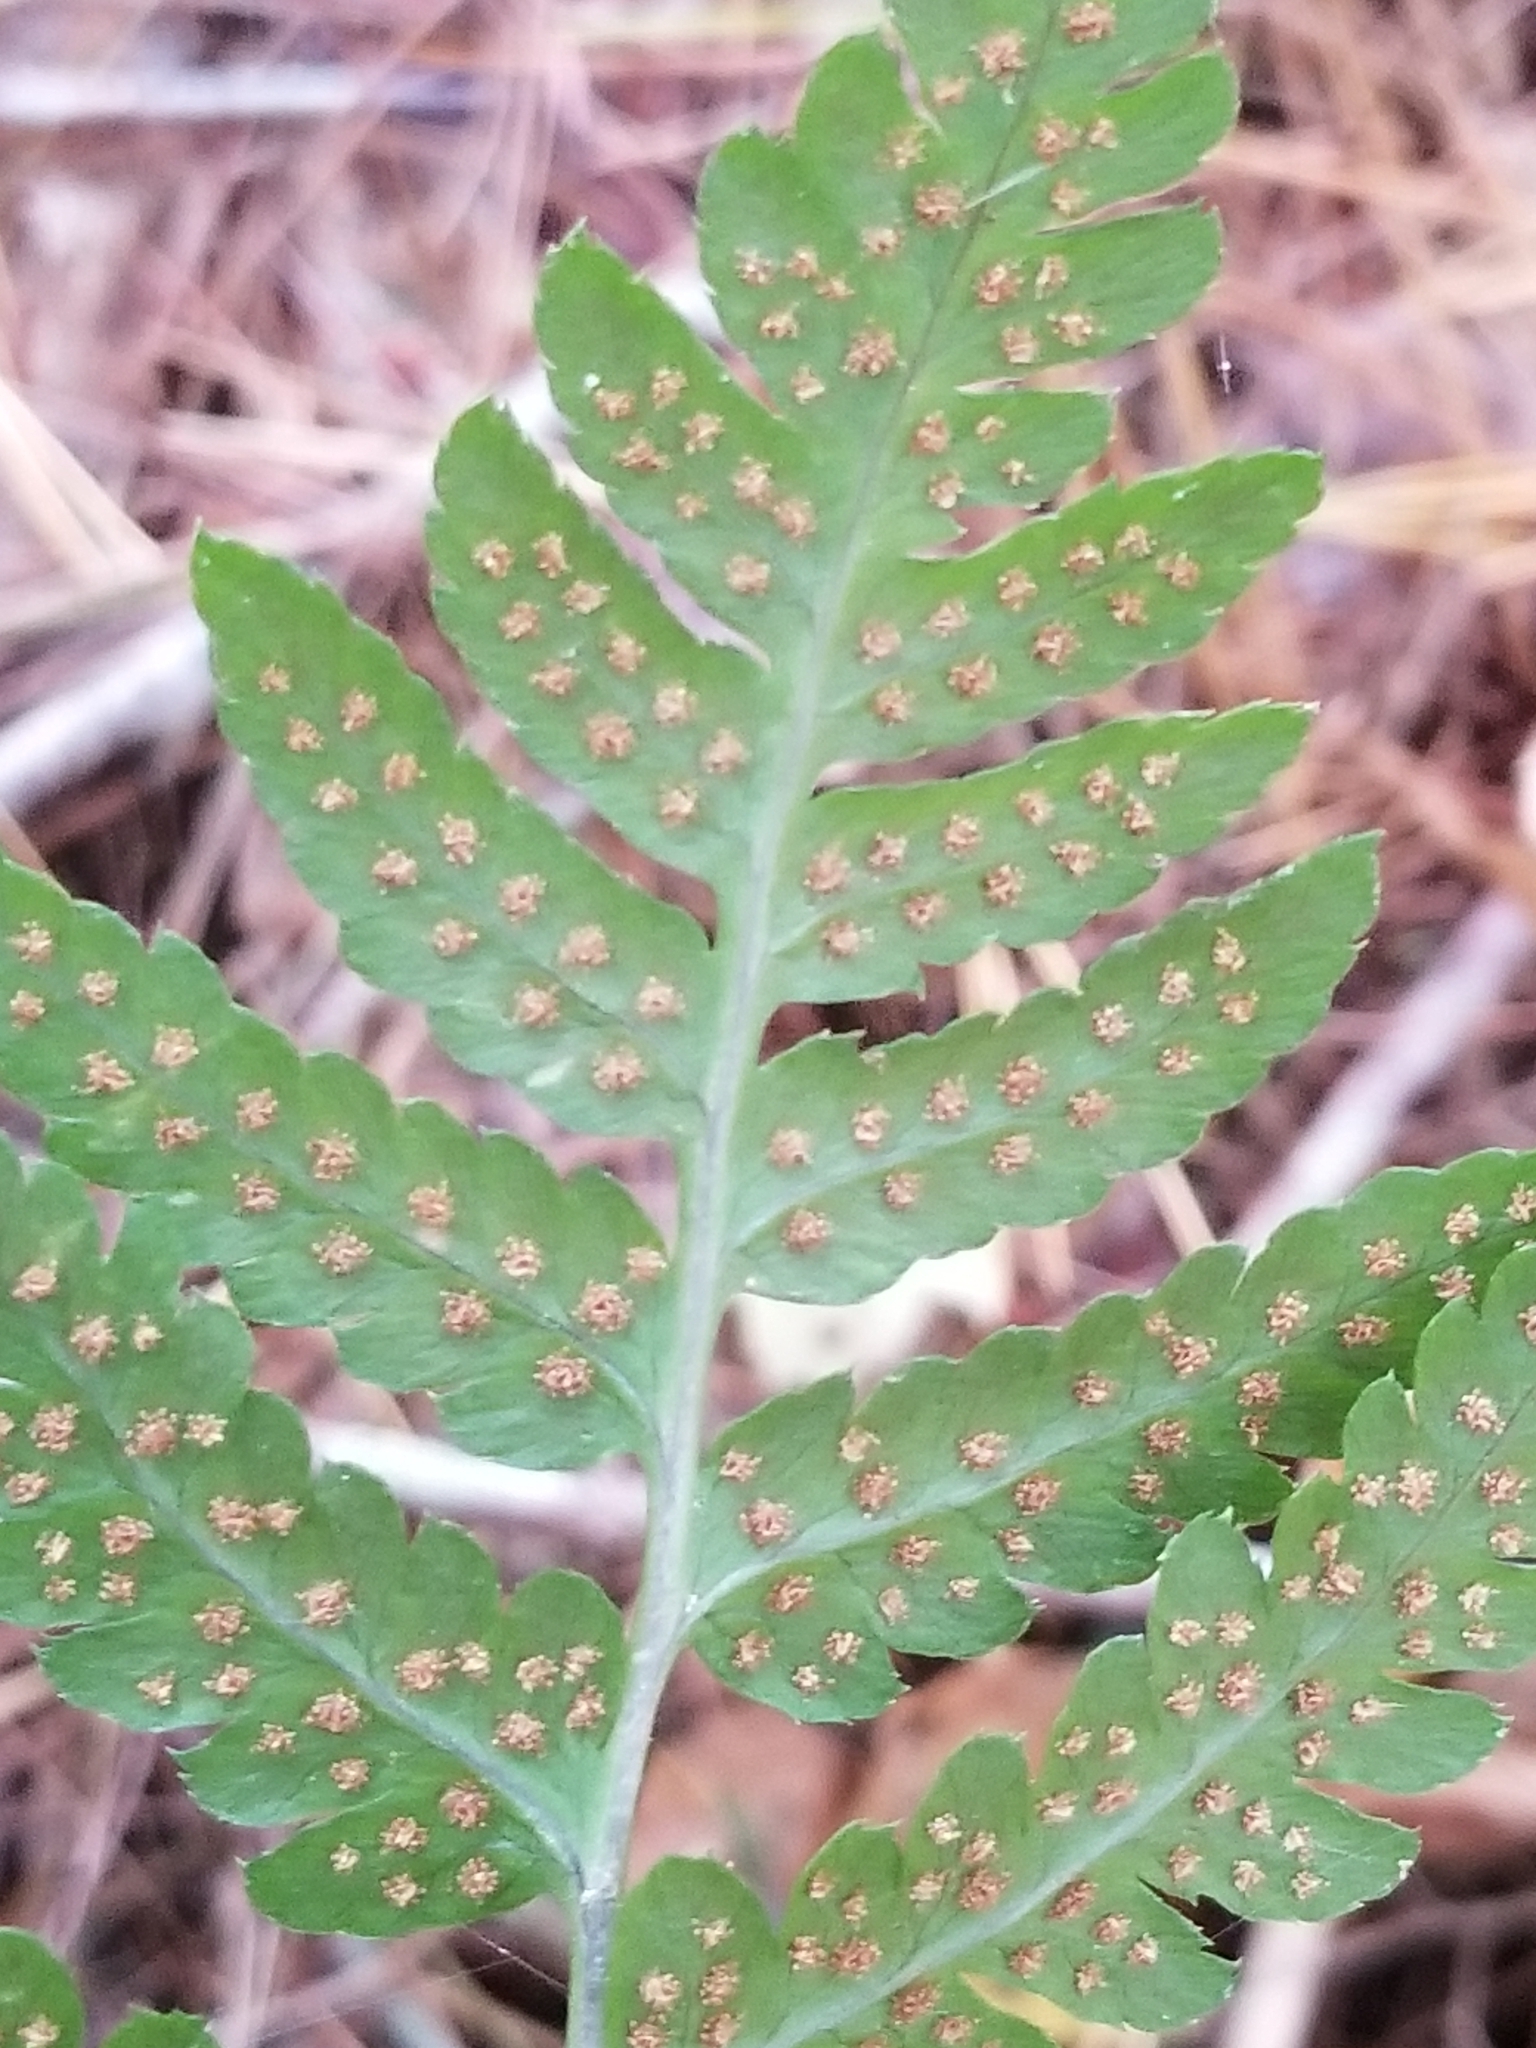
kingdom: Plantae
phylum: Tracheophyta
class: Polypodiopsida
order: Polypodiales
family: Dryopteridaceae
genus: Dryopteris
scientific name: Dryopteris carthusiana
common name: Narrow buckler-fern
